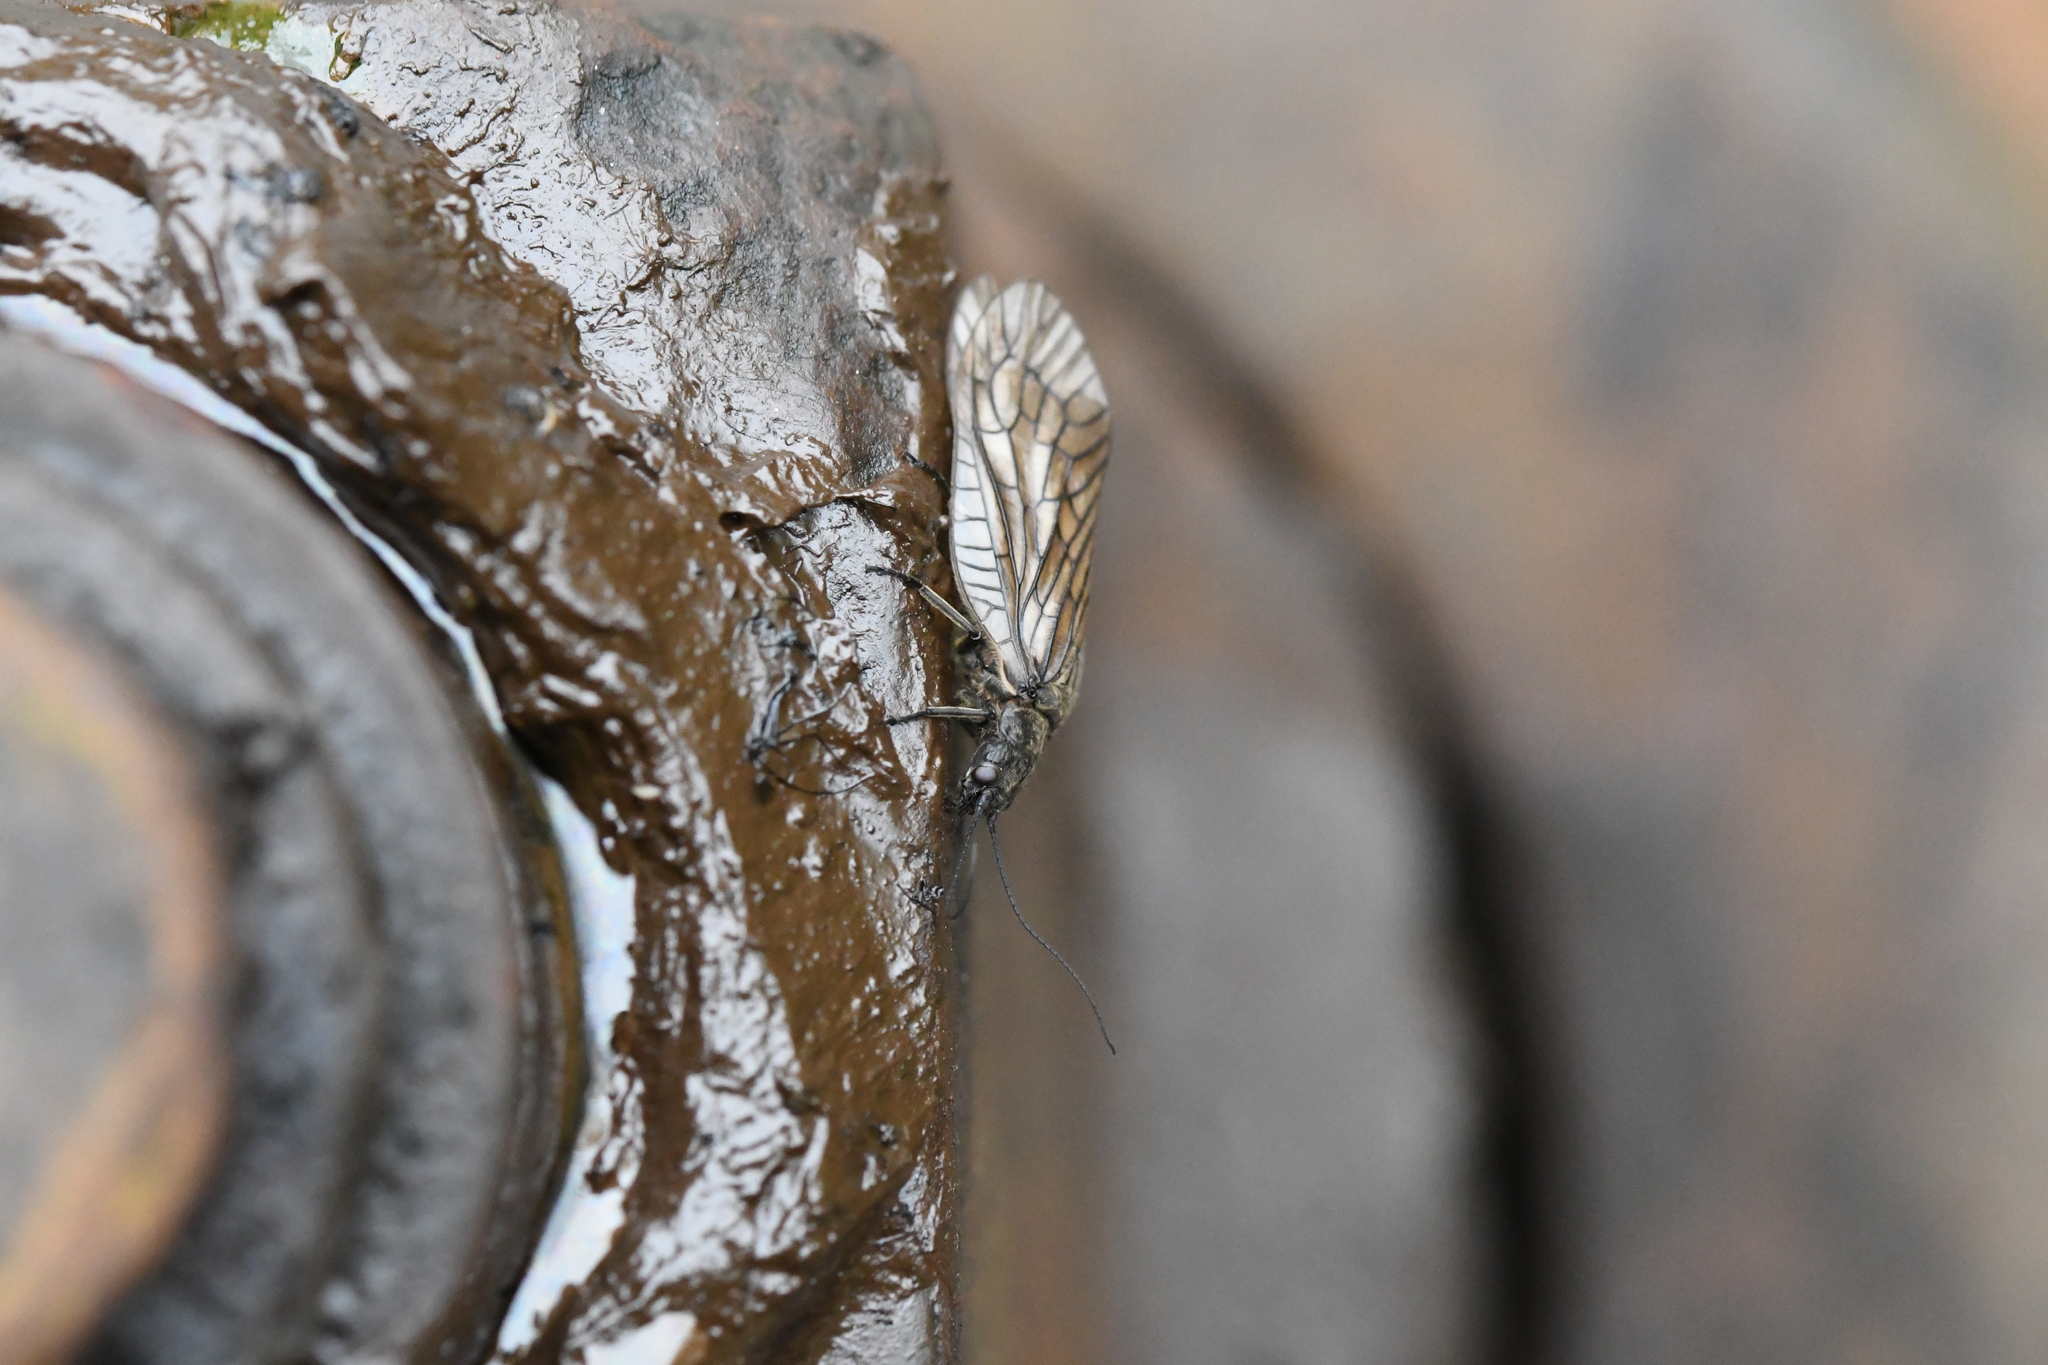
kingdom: Animalia
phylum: Arthropoda
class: Insecta
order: Megaloptera
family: Sialidae
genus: Sialis
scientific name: Sialis
